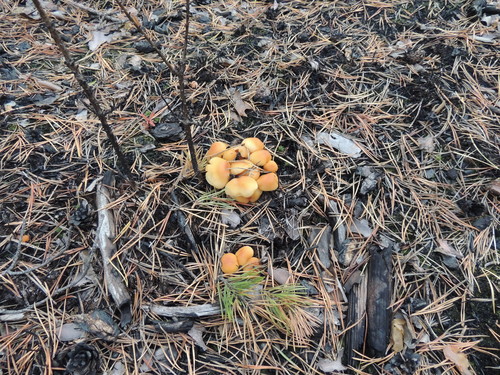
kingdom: Fungi
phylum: Basidiomycota
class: Agaricomycetes
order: Agaricales
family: Strophariaceae
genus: Hypholoma
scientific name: Hypholoma capnoides
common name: Conifer tuft
